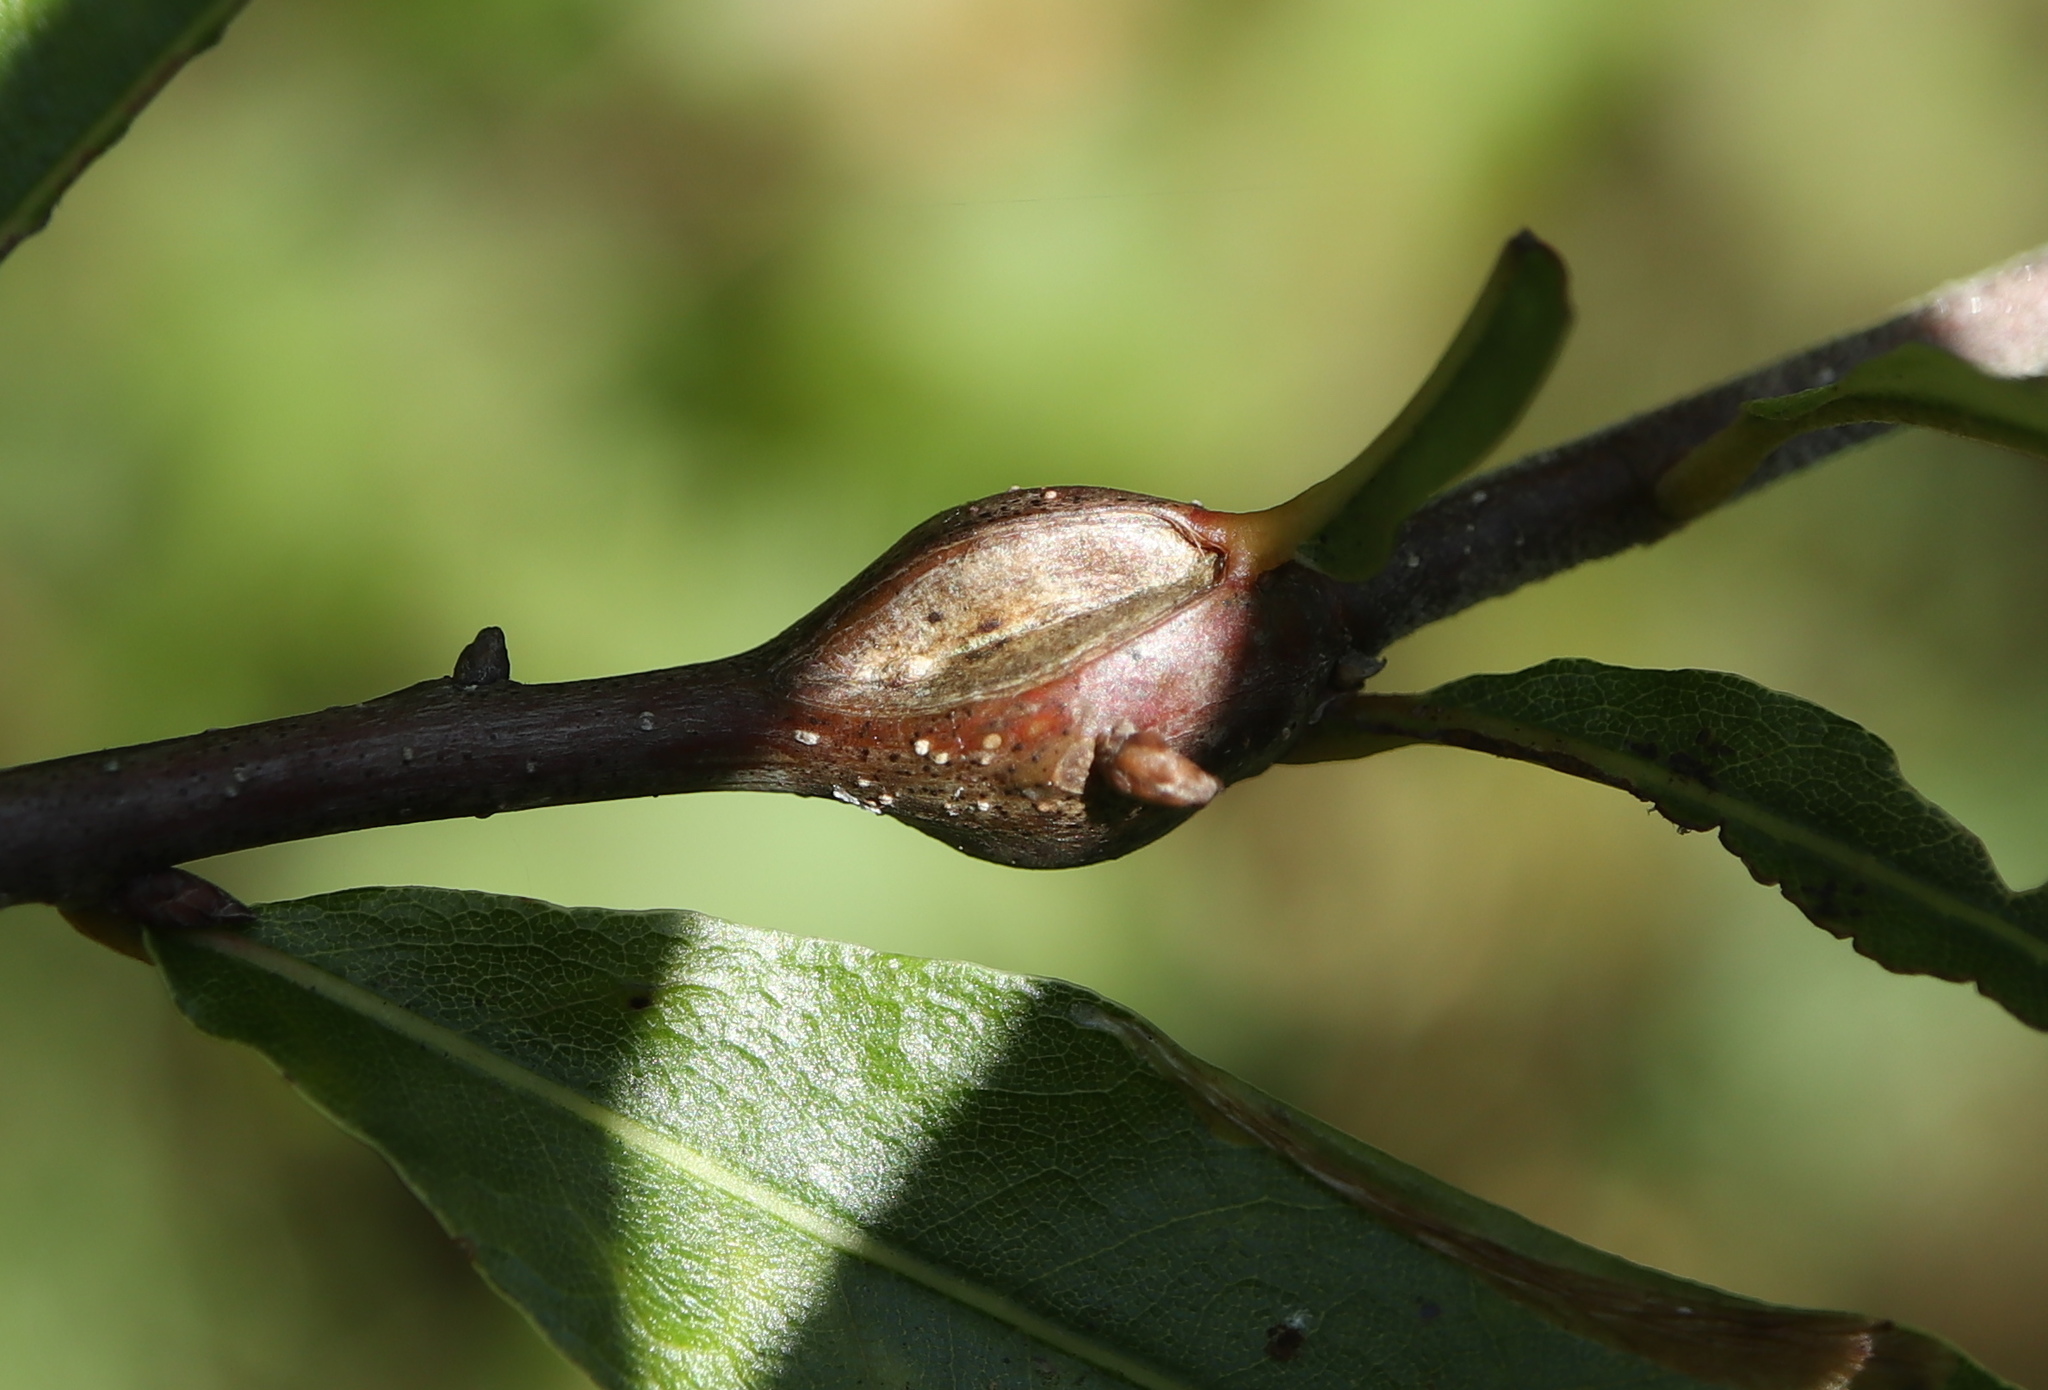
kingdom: Animalia
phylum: Arthropoda
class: Insecta
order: Hymenoptera
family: Cynipidae
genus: Zapatella
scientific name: Zapatella quercusphellos
